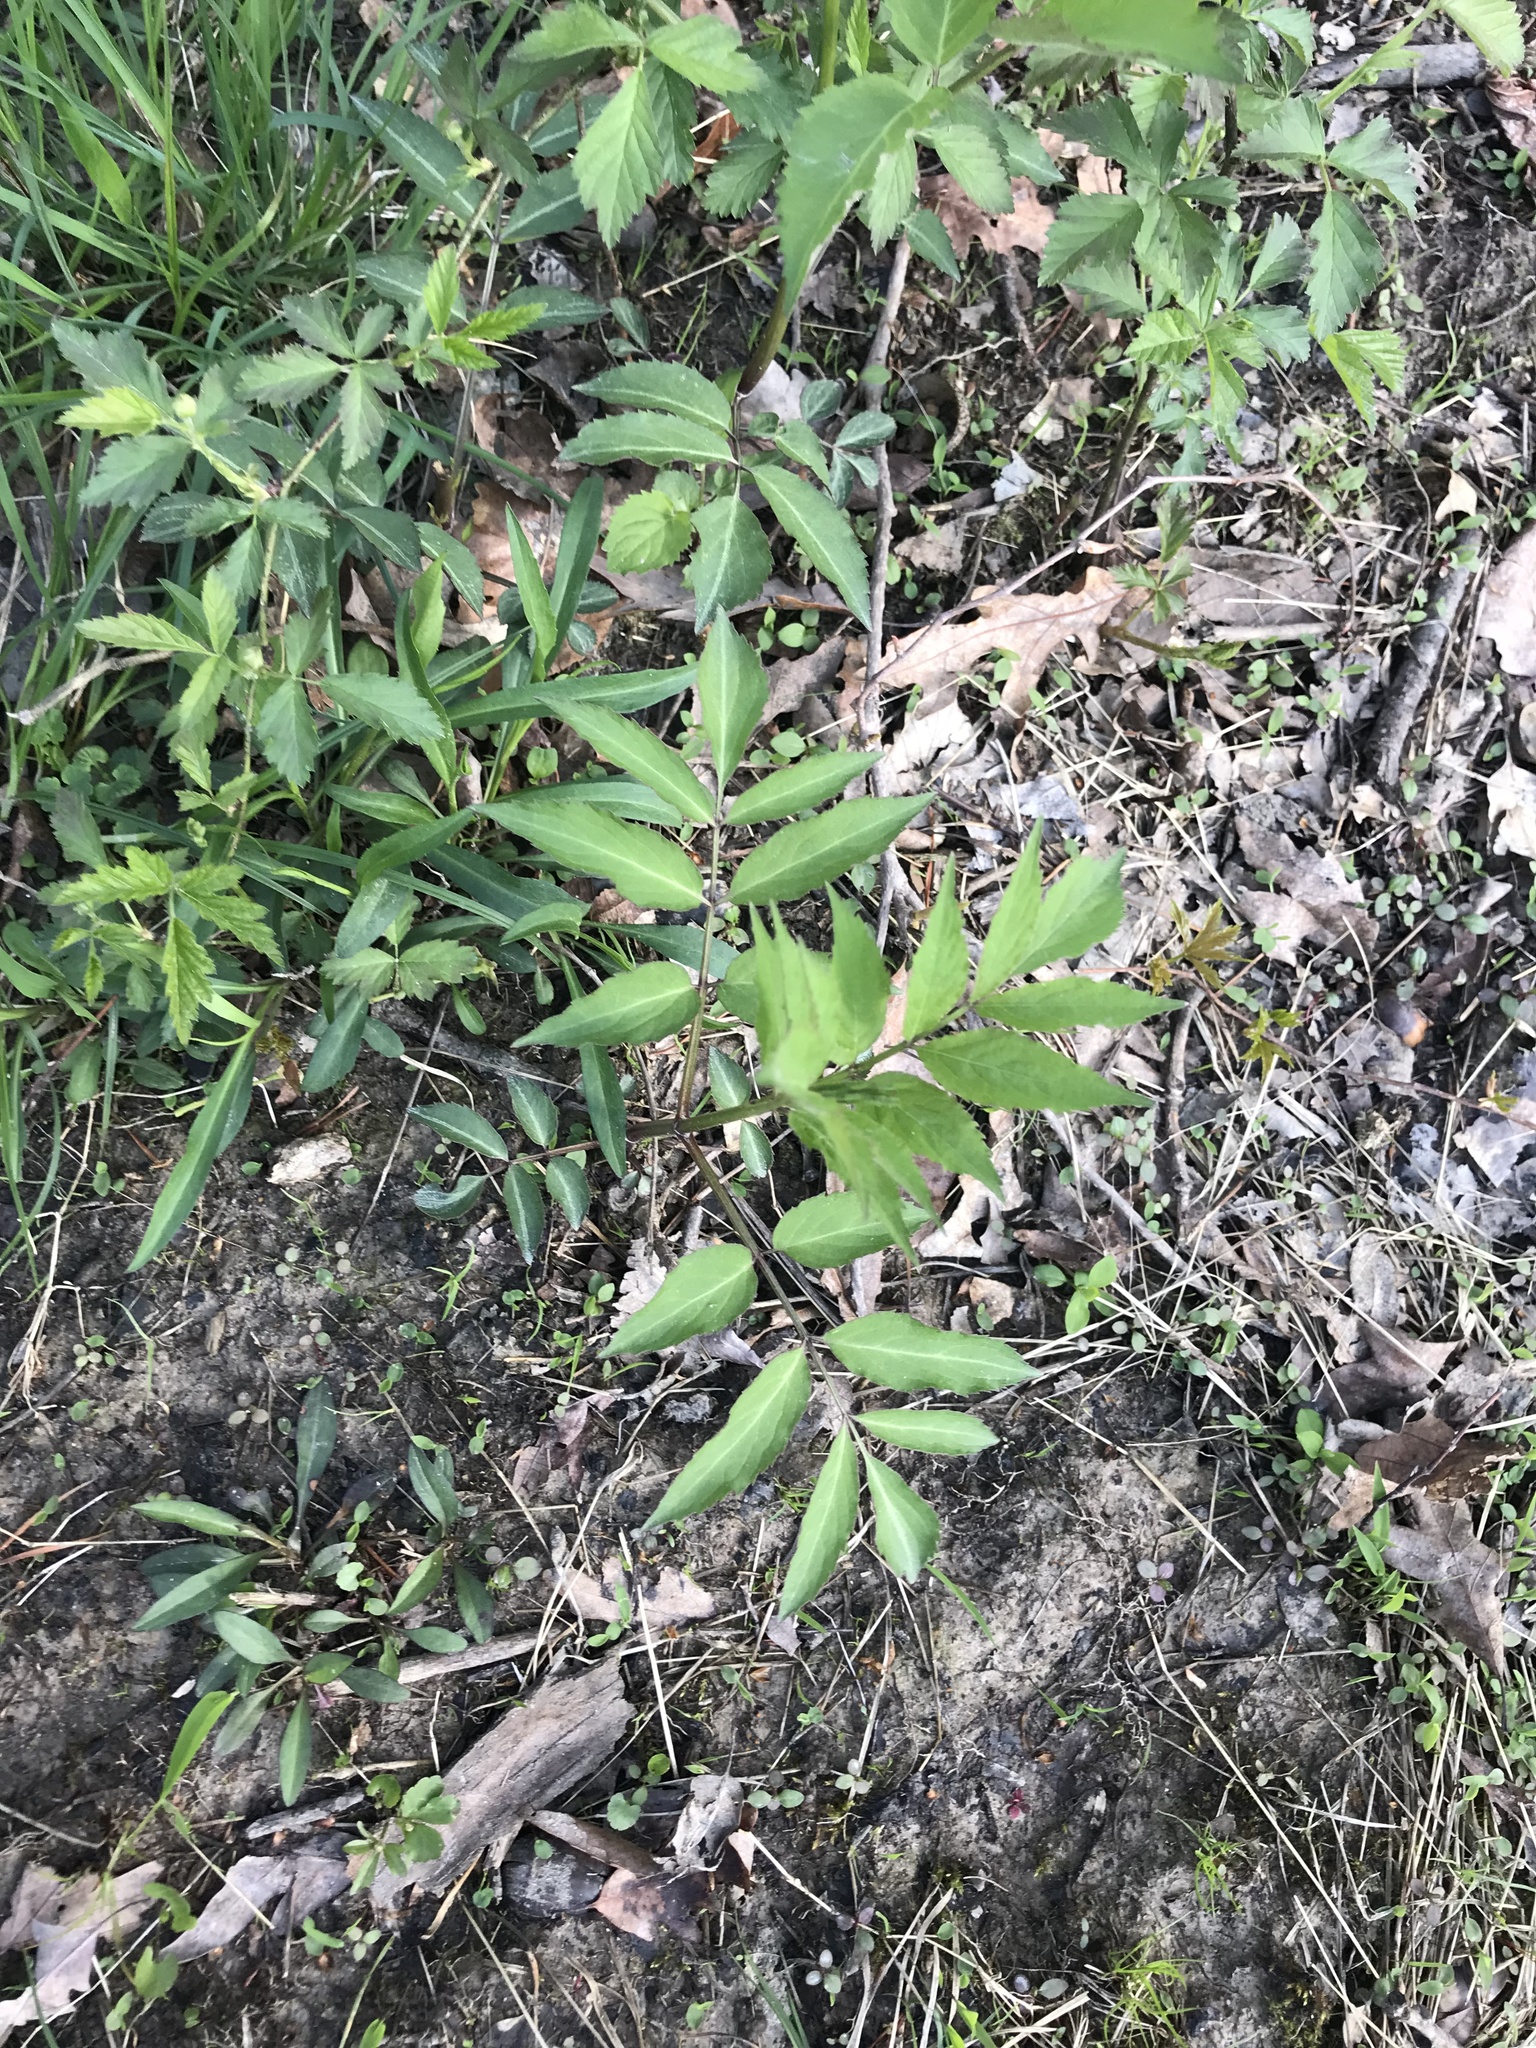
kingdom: Plantae
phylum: Tracheophyta
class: Magnoliopsida
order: Dipsacales
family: Viburnaceae
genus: Sambucus
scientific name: Sambucus canadensis
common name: American elder
